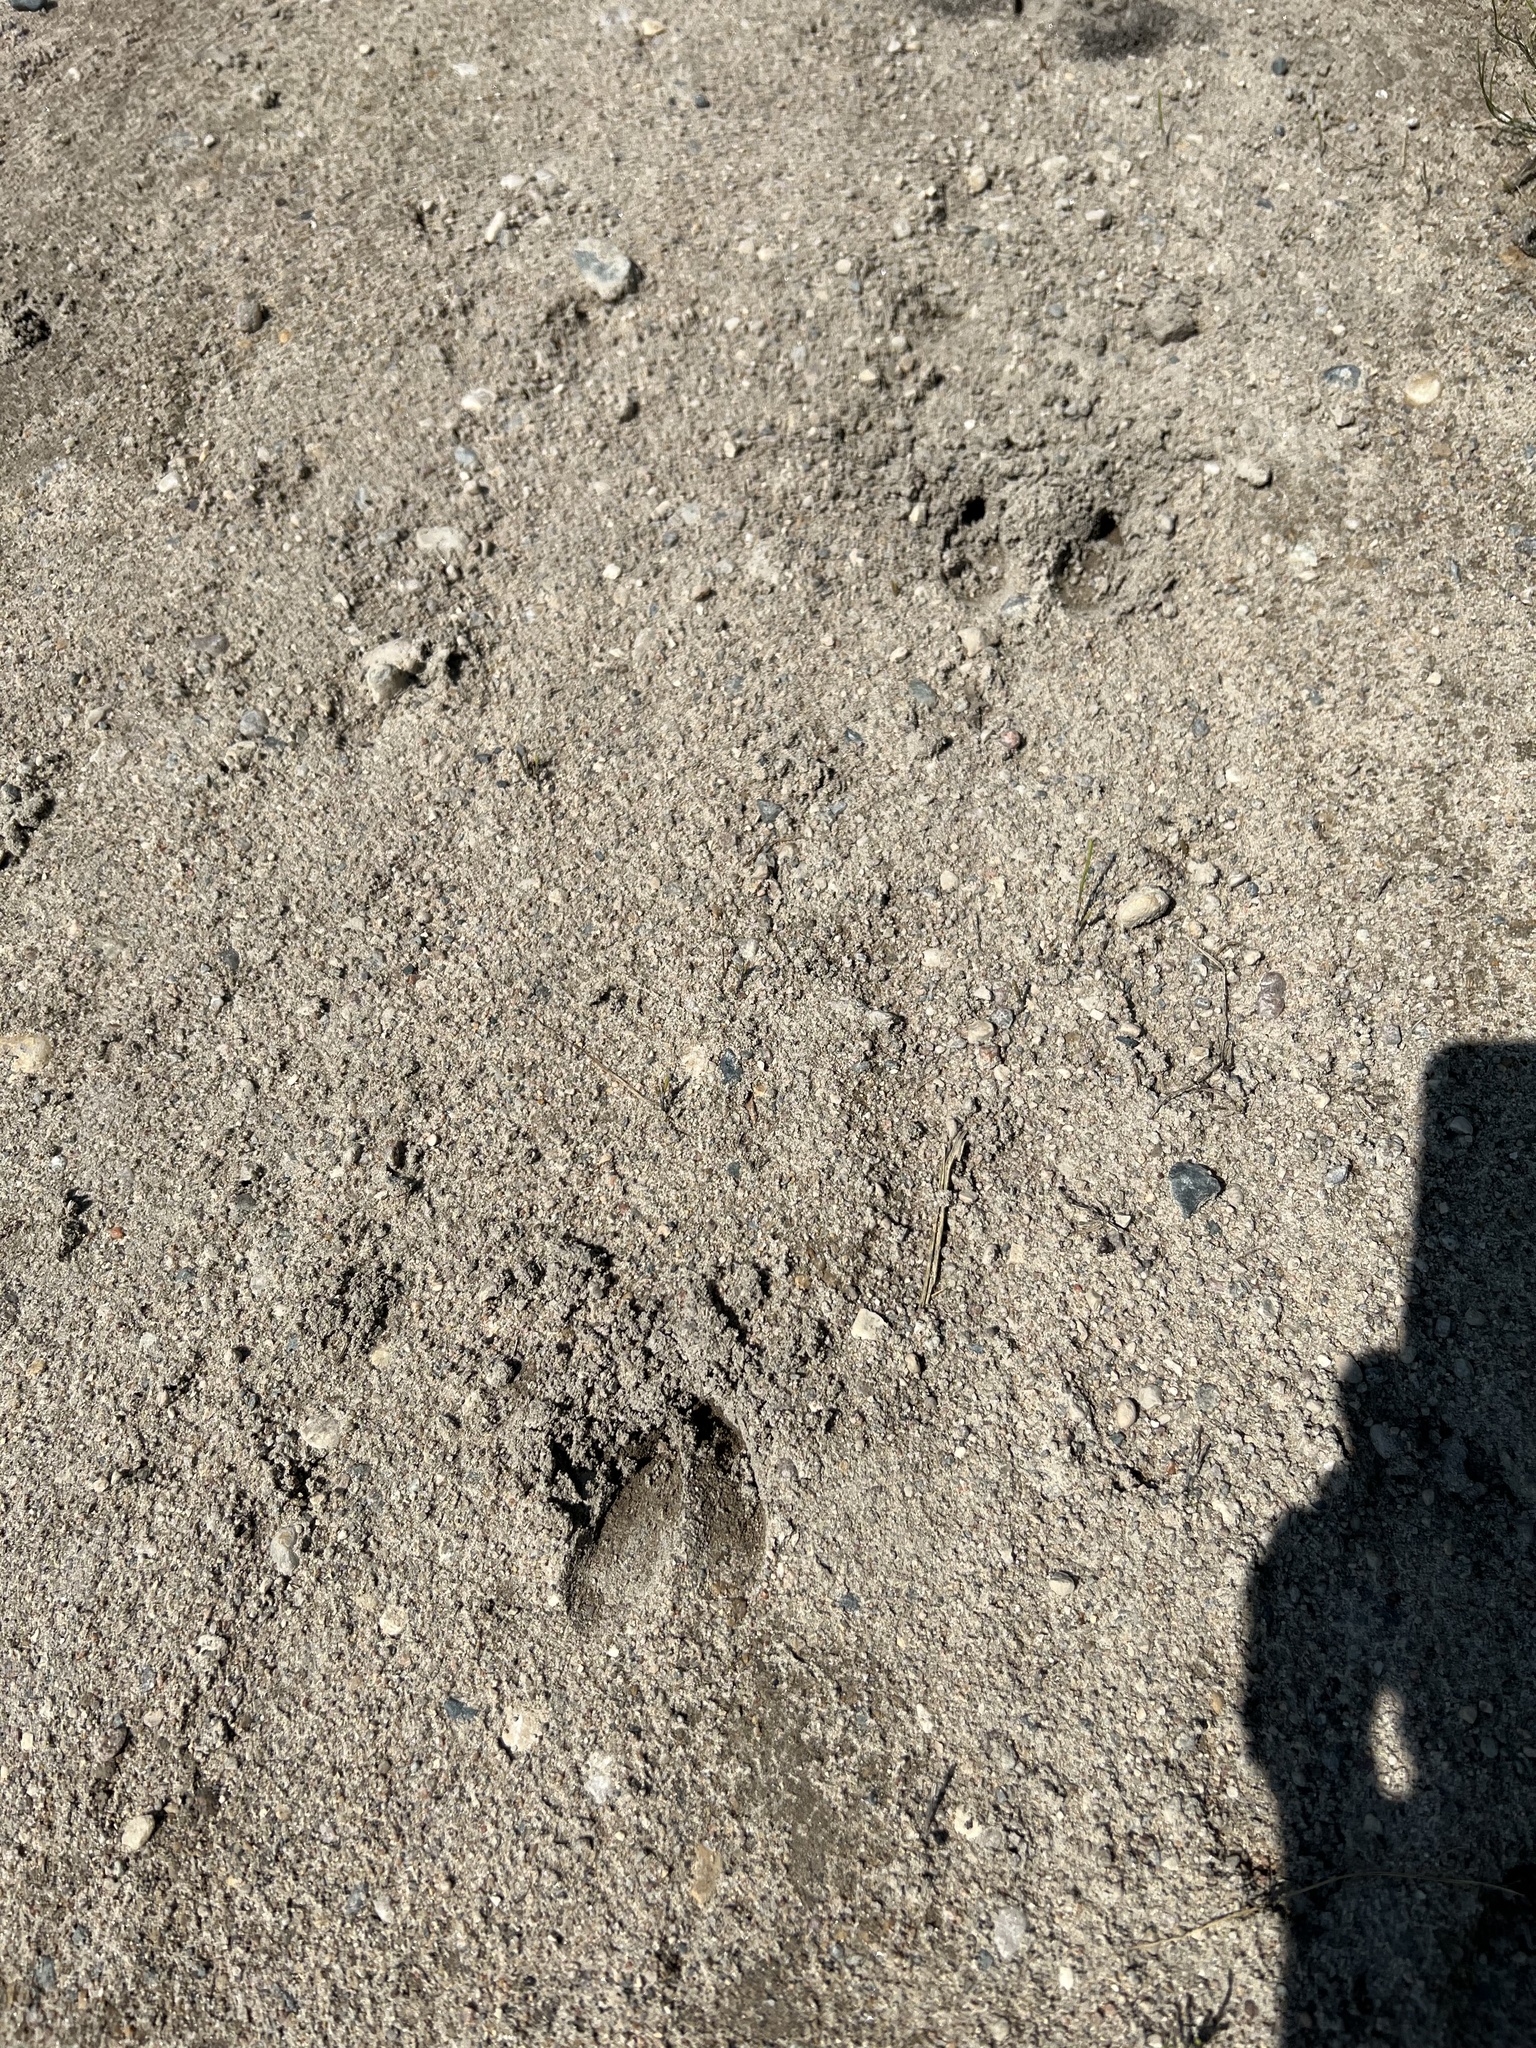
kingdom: Animalia
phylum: Chordata
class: Mammalia
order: Artiodactyla
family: Cervidae
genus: Odocoileus
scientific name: Odocoileus virginianus
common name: White-tailed deer
